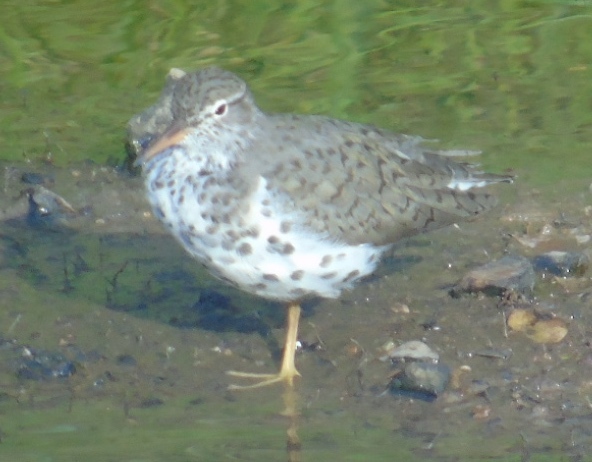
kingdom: Animalia
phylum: Chordata
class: Aves
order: Charadriiformes
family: Scolopacidae
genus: Actitis
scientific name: Actitis macularius
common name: Spotted sandpiper
